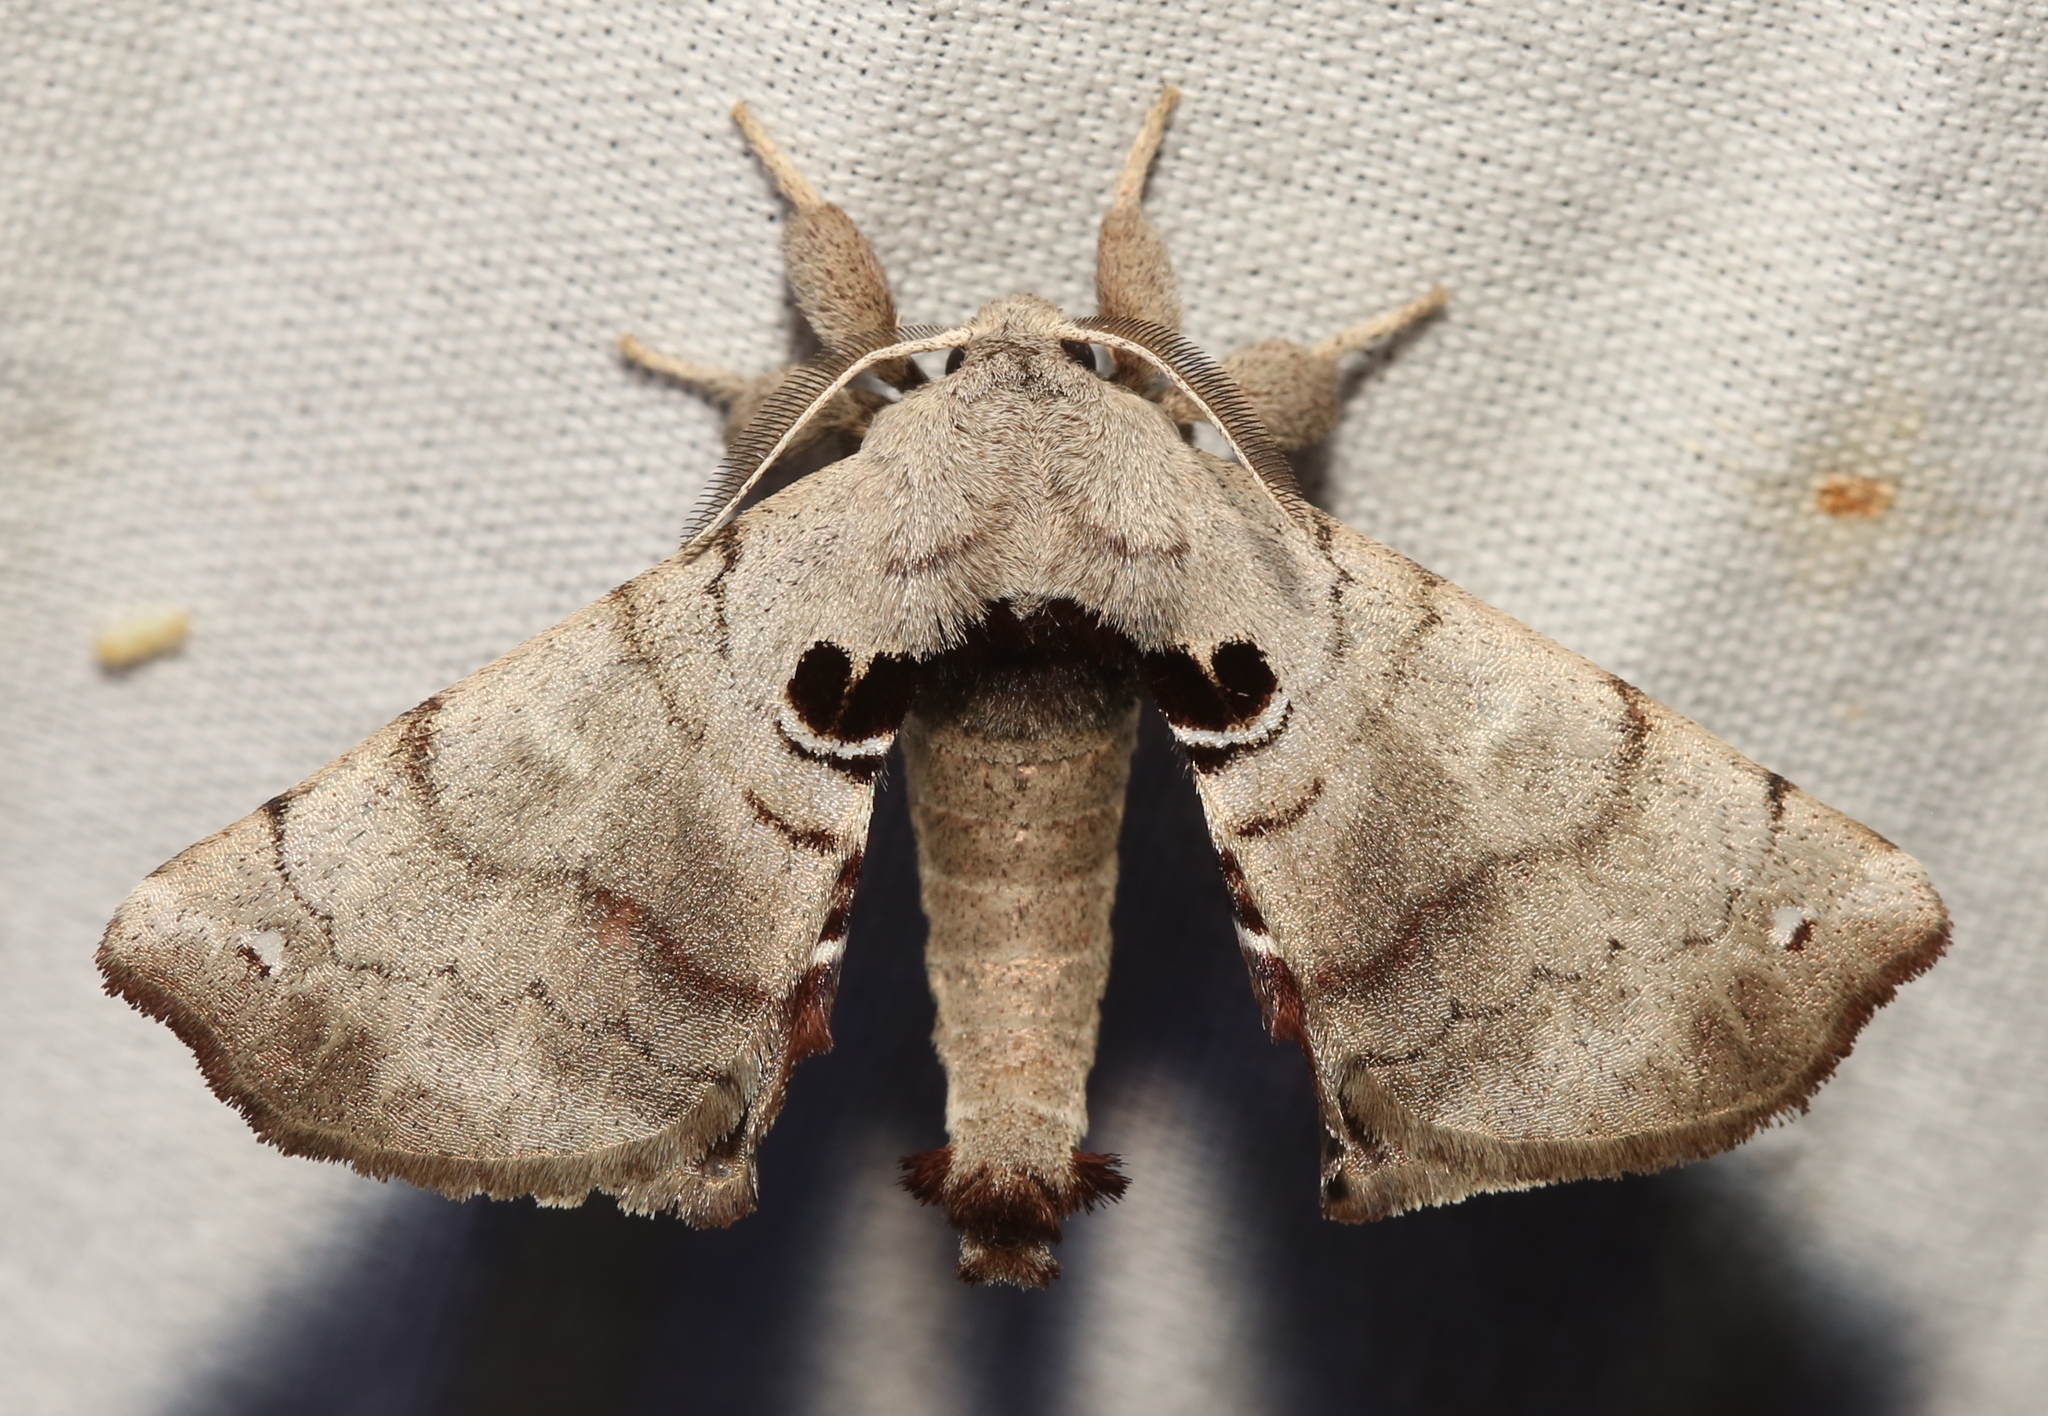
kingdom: Animalia
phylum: Arthropoda
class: Insecta
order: Lepidoptera
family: Apatelodidae
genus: Hygrochroa
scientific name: Hygrochroa Apatelodes torrefacta
